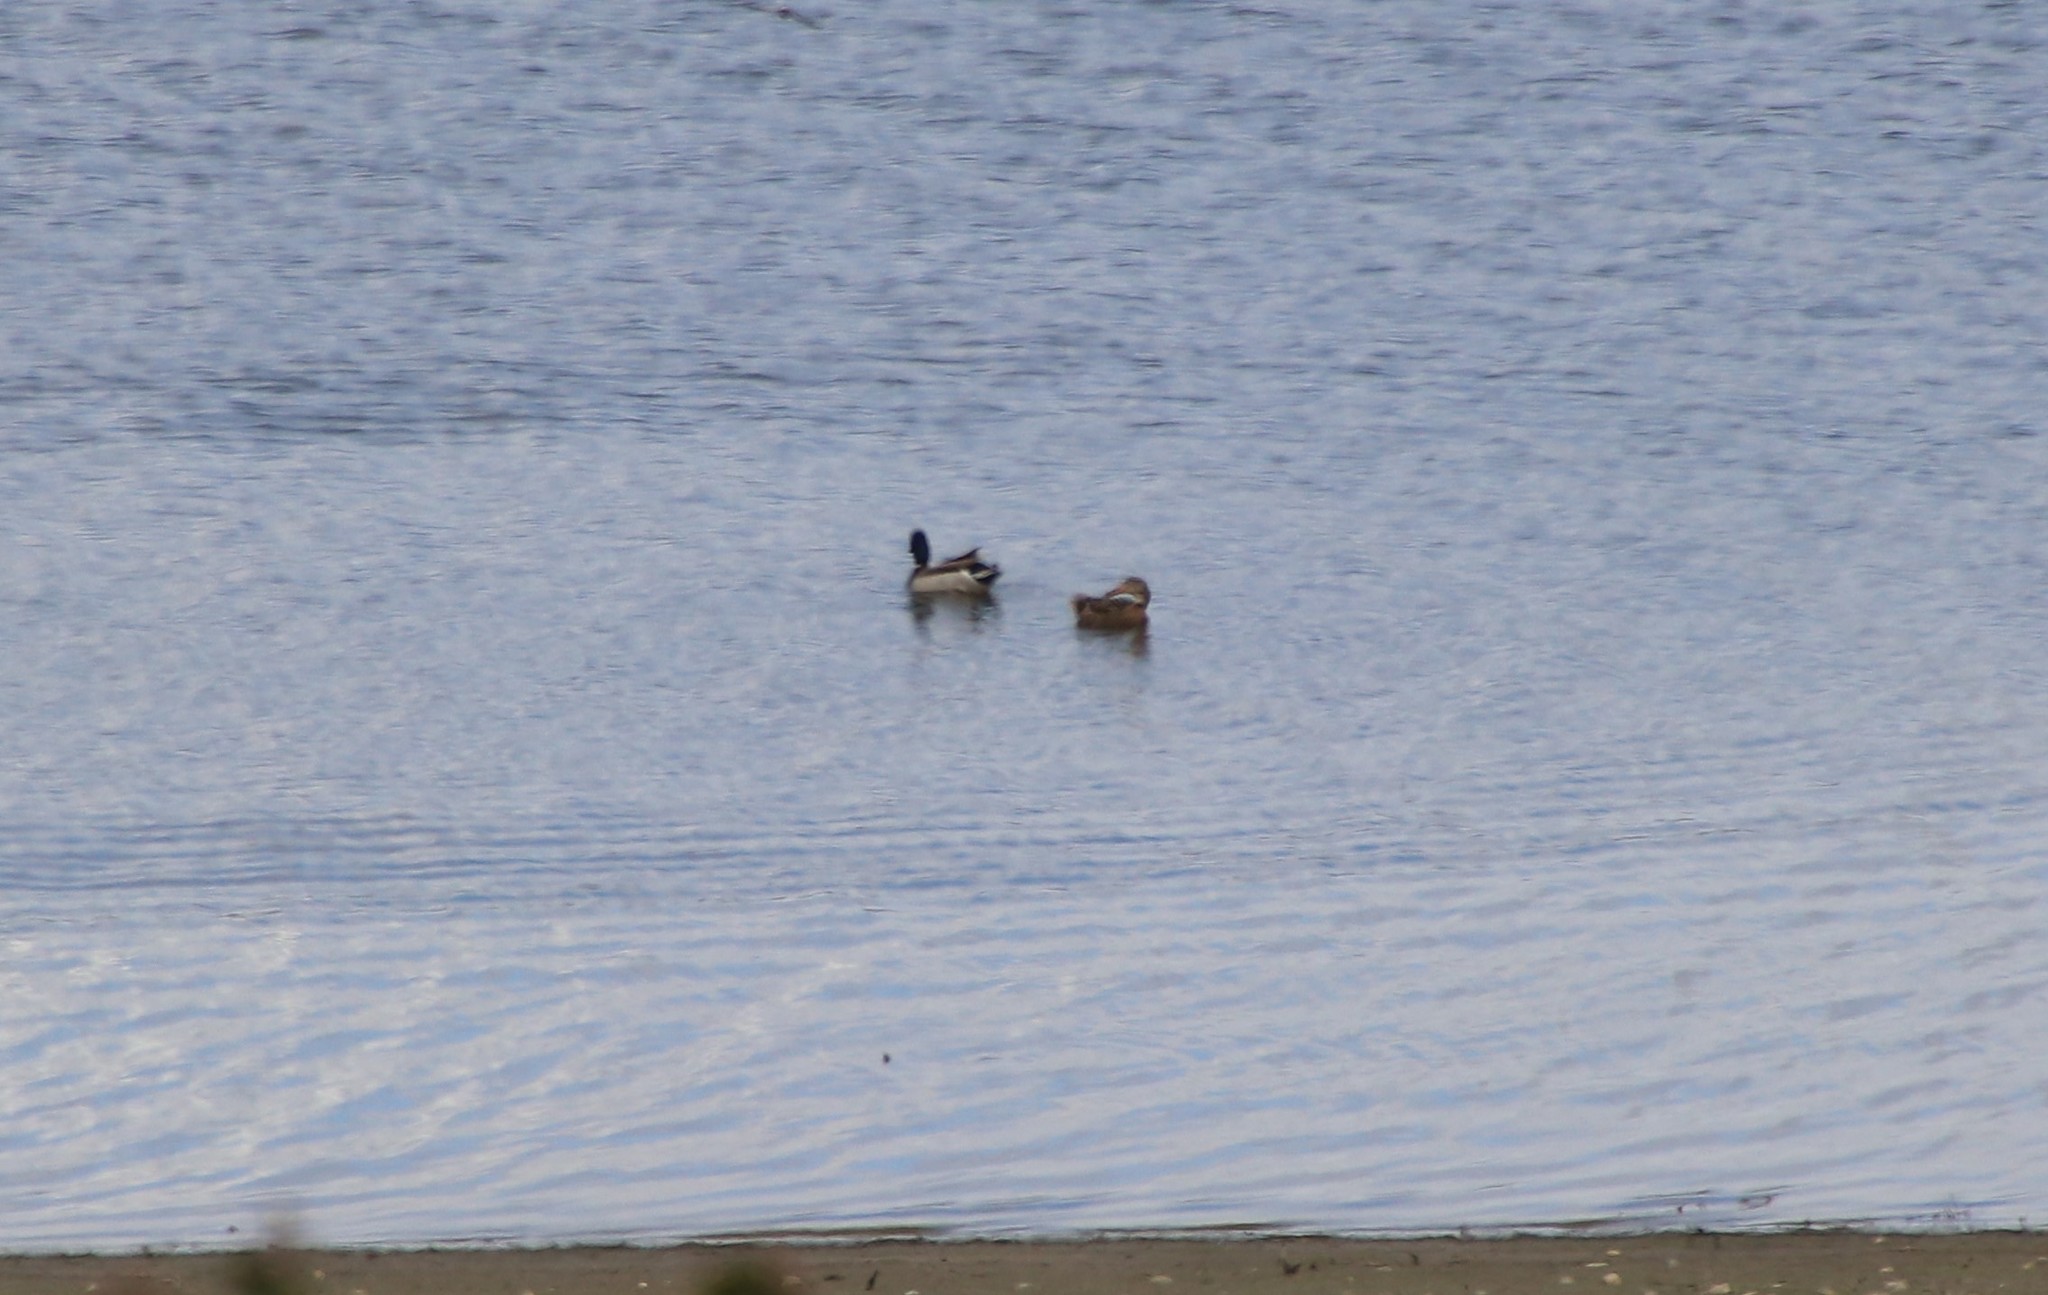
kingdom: Animalia
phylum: Chordata
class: Aves
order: Anseriformes
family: Anatidae
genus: Anas
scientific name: Anas platyrhynchos
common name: Mallard
